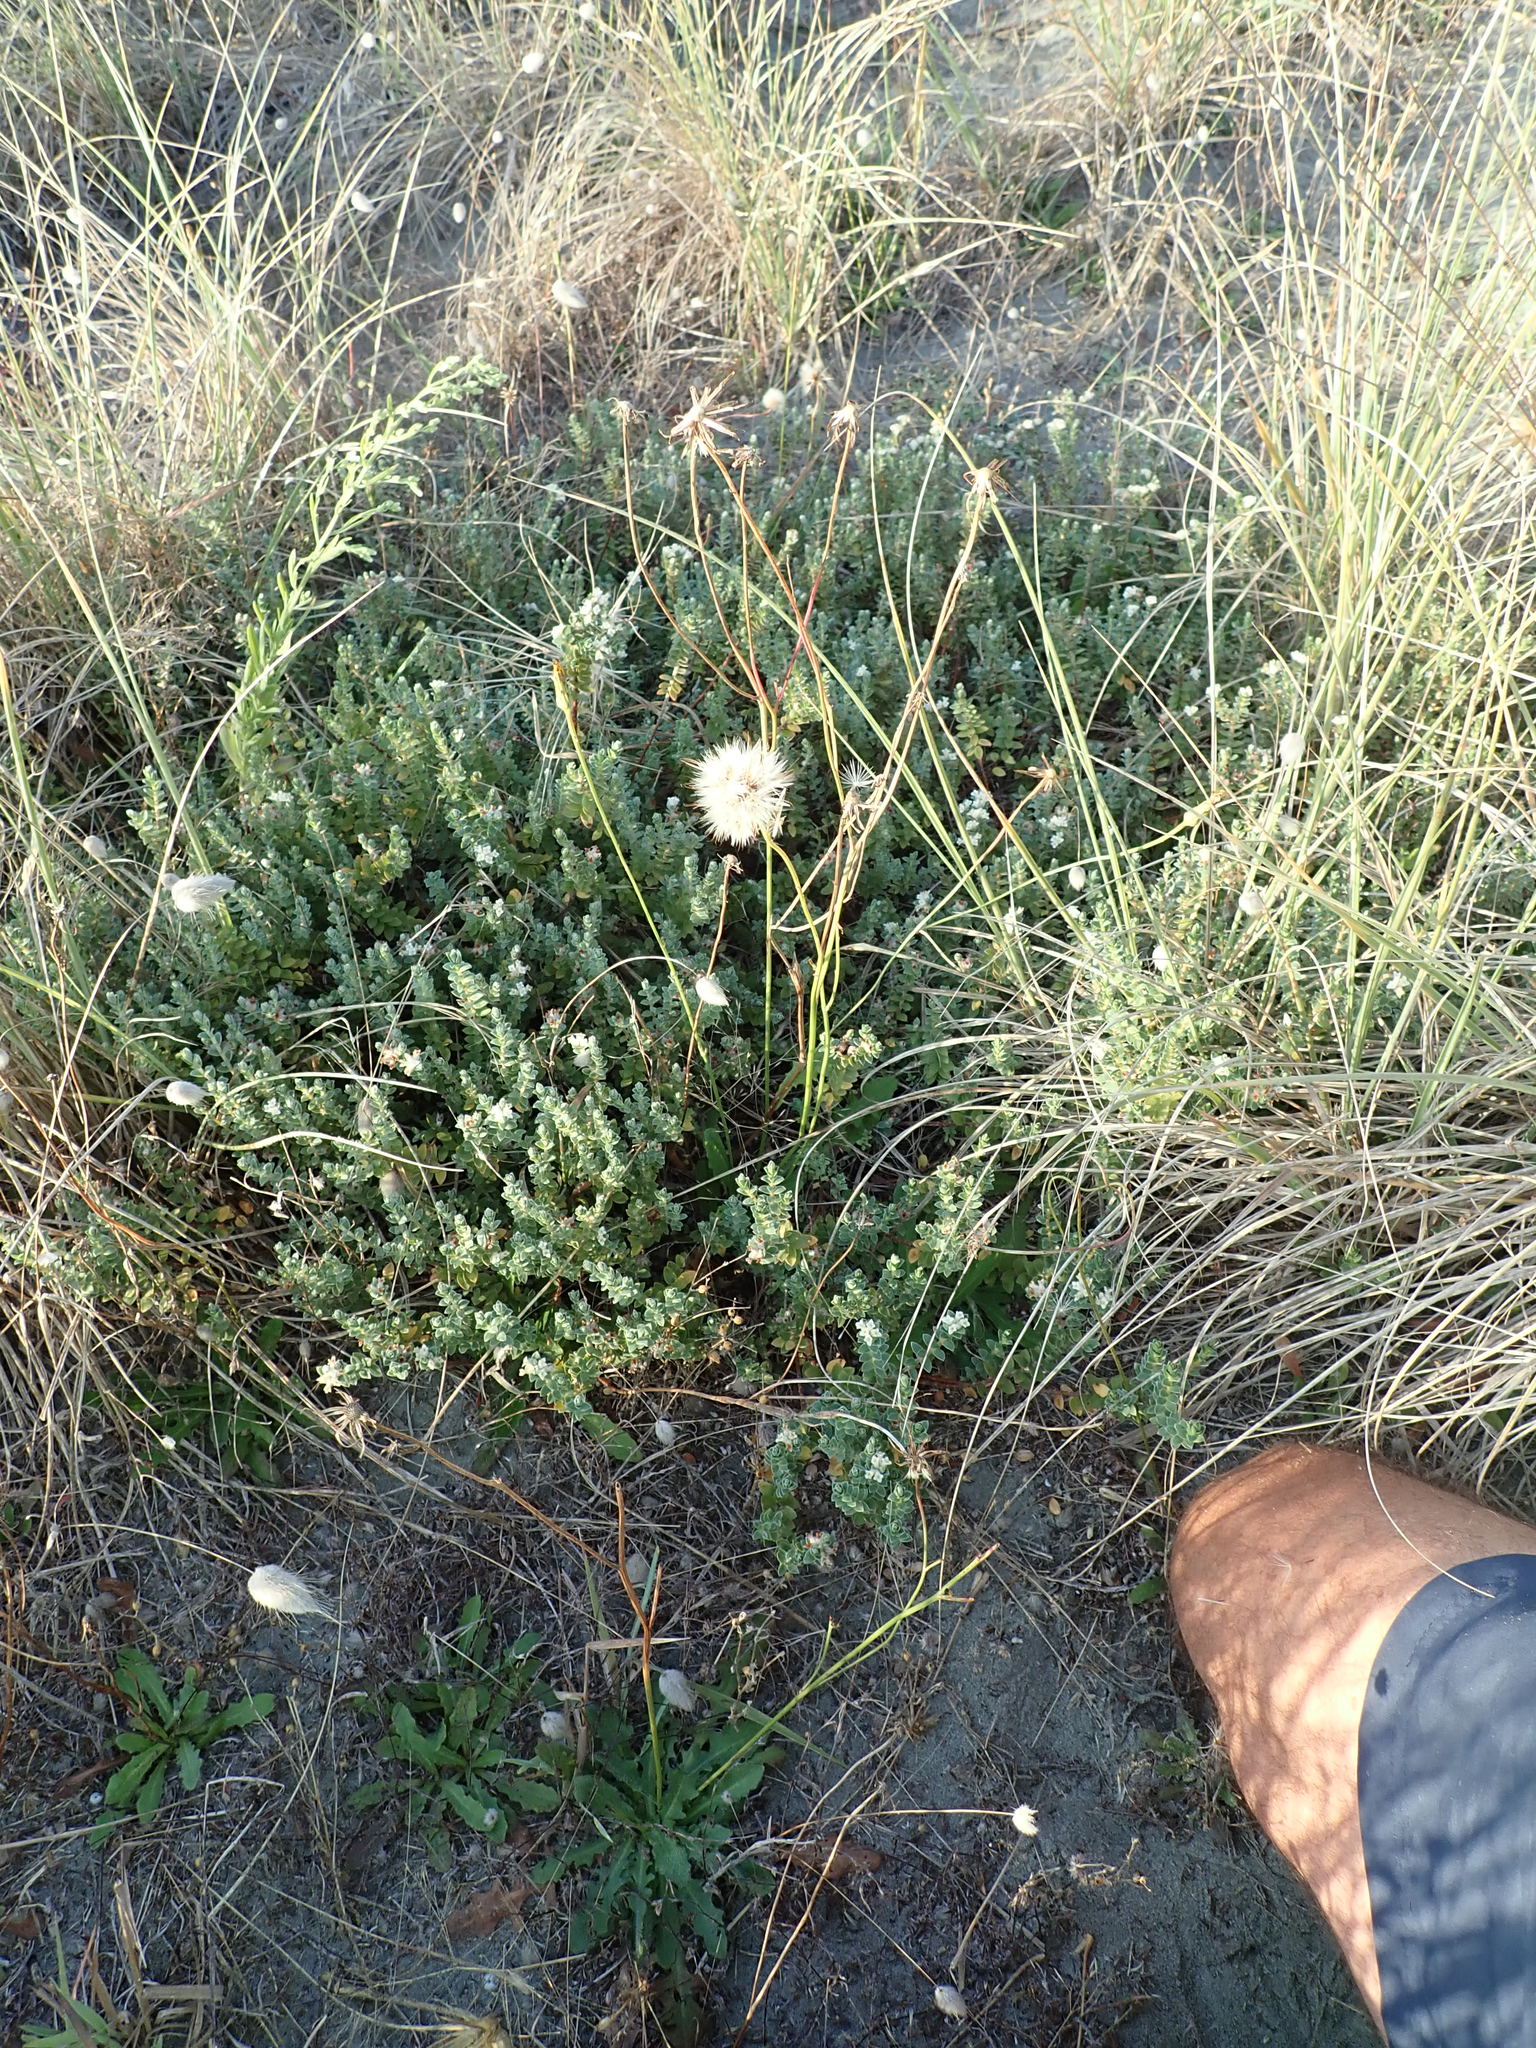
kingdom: Plantae
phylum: Tracheophyta
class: Magnoliopsida
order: Malvales
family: Thymelaeaceae
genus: Pimelea
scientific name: Pimelea villosa
